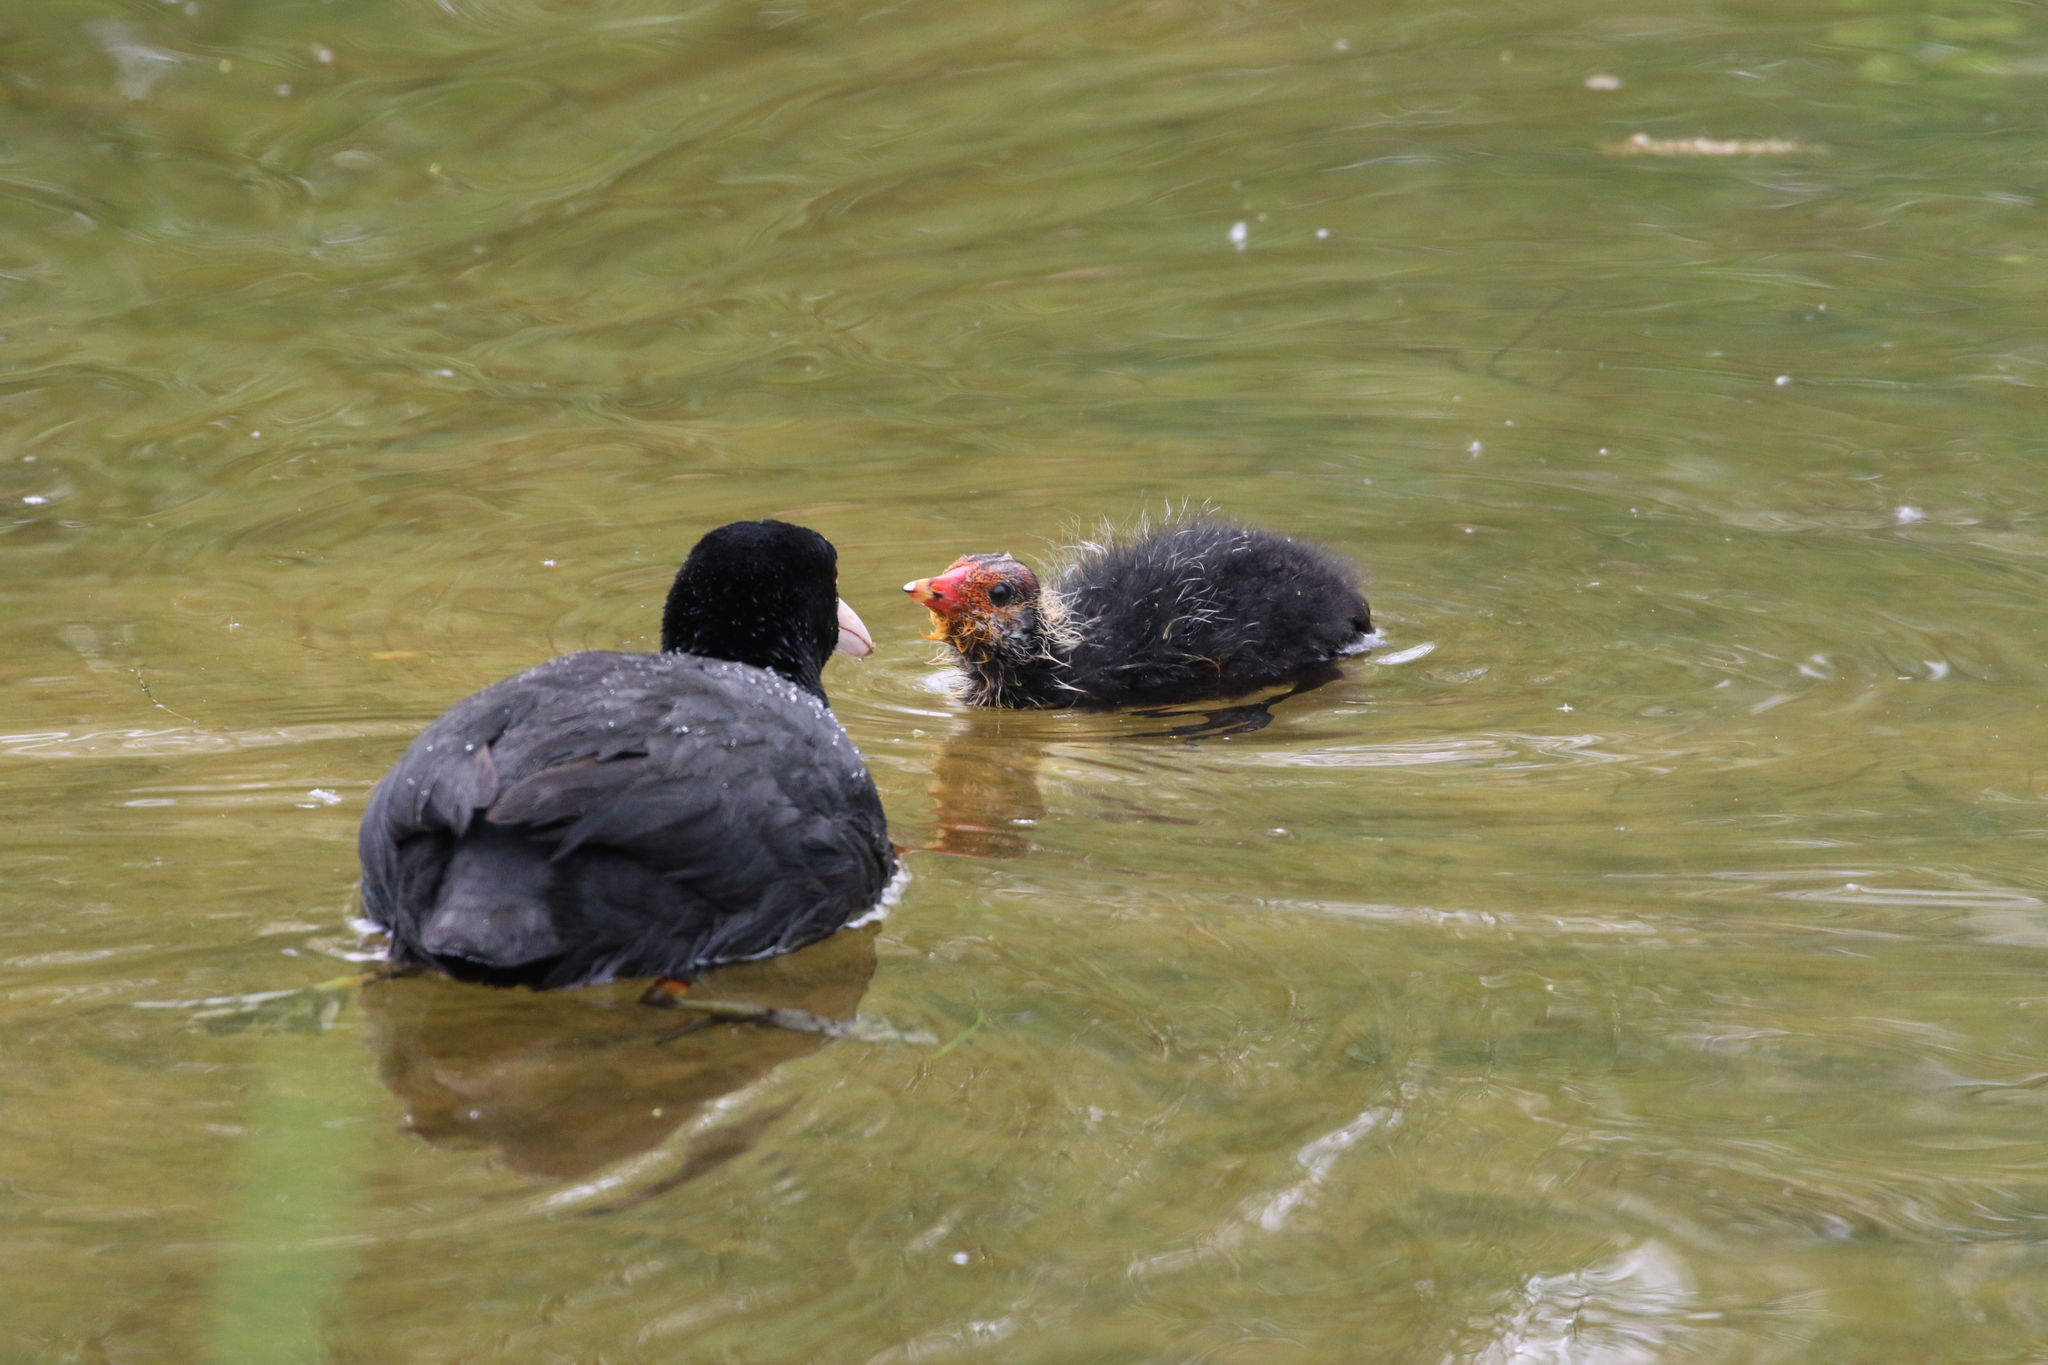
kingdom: Animalia
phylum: Chordata
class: Aves
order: Gruiformes
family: Rallidae
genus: Fulica
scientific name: Fulica atra
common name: Eurasian coot
